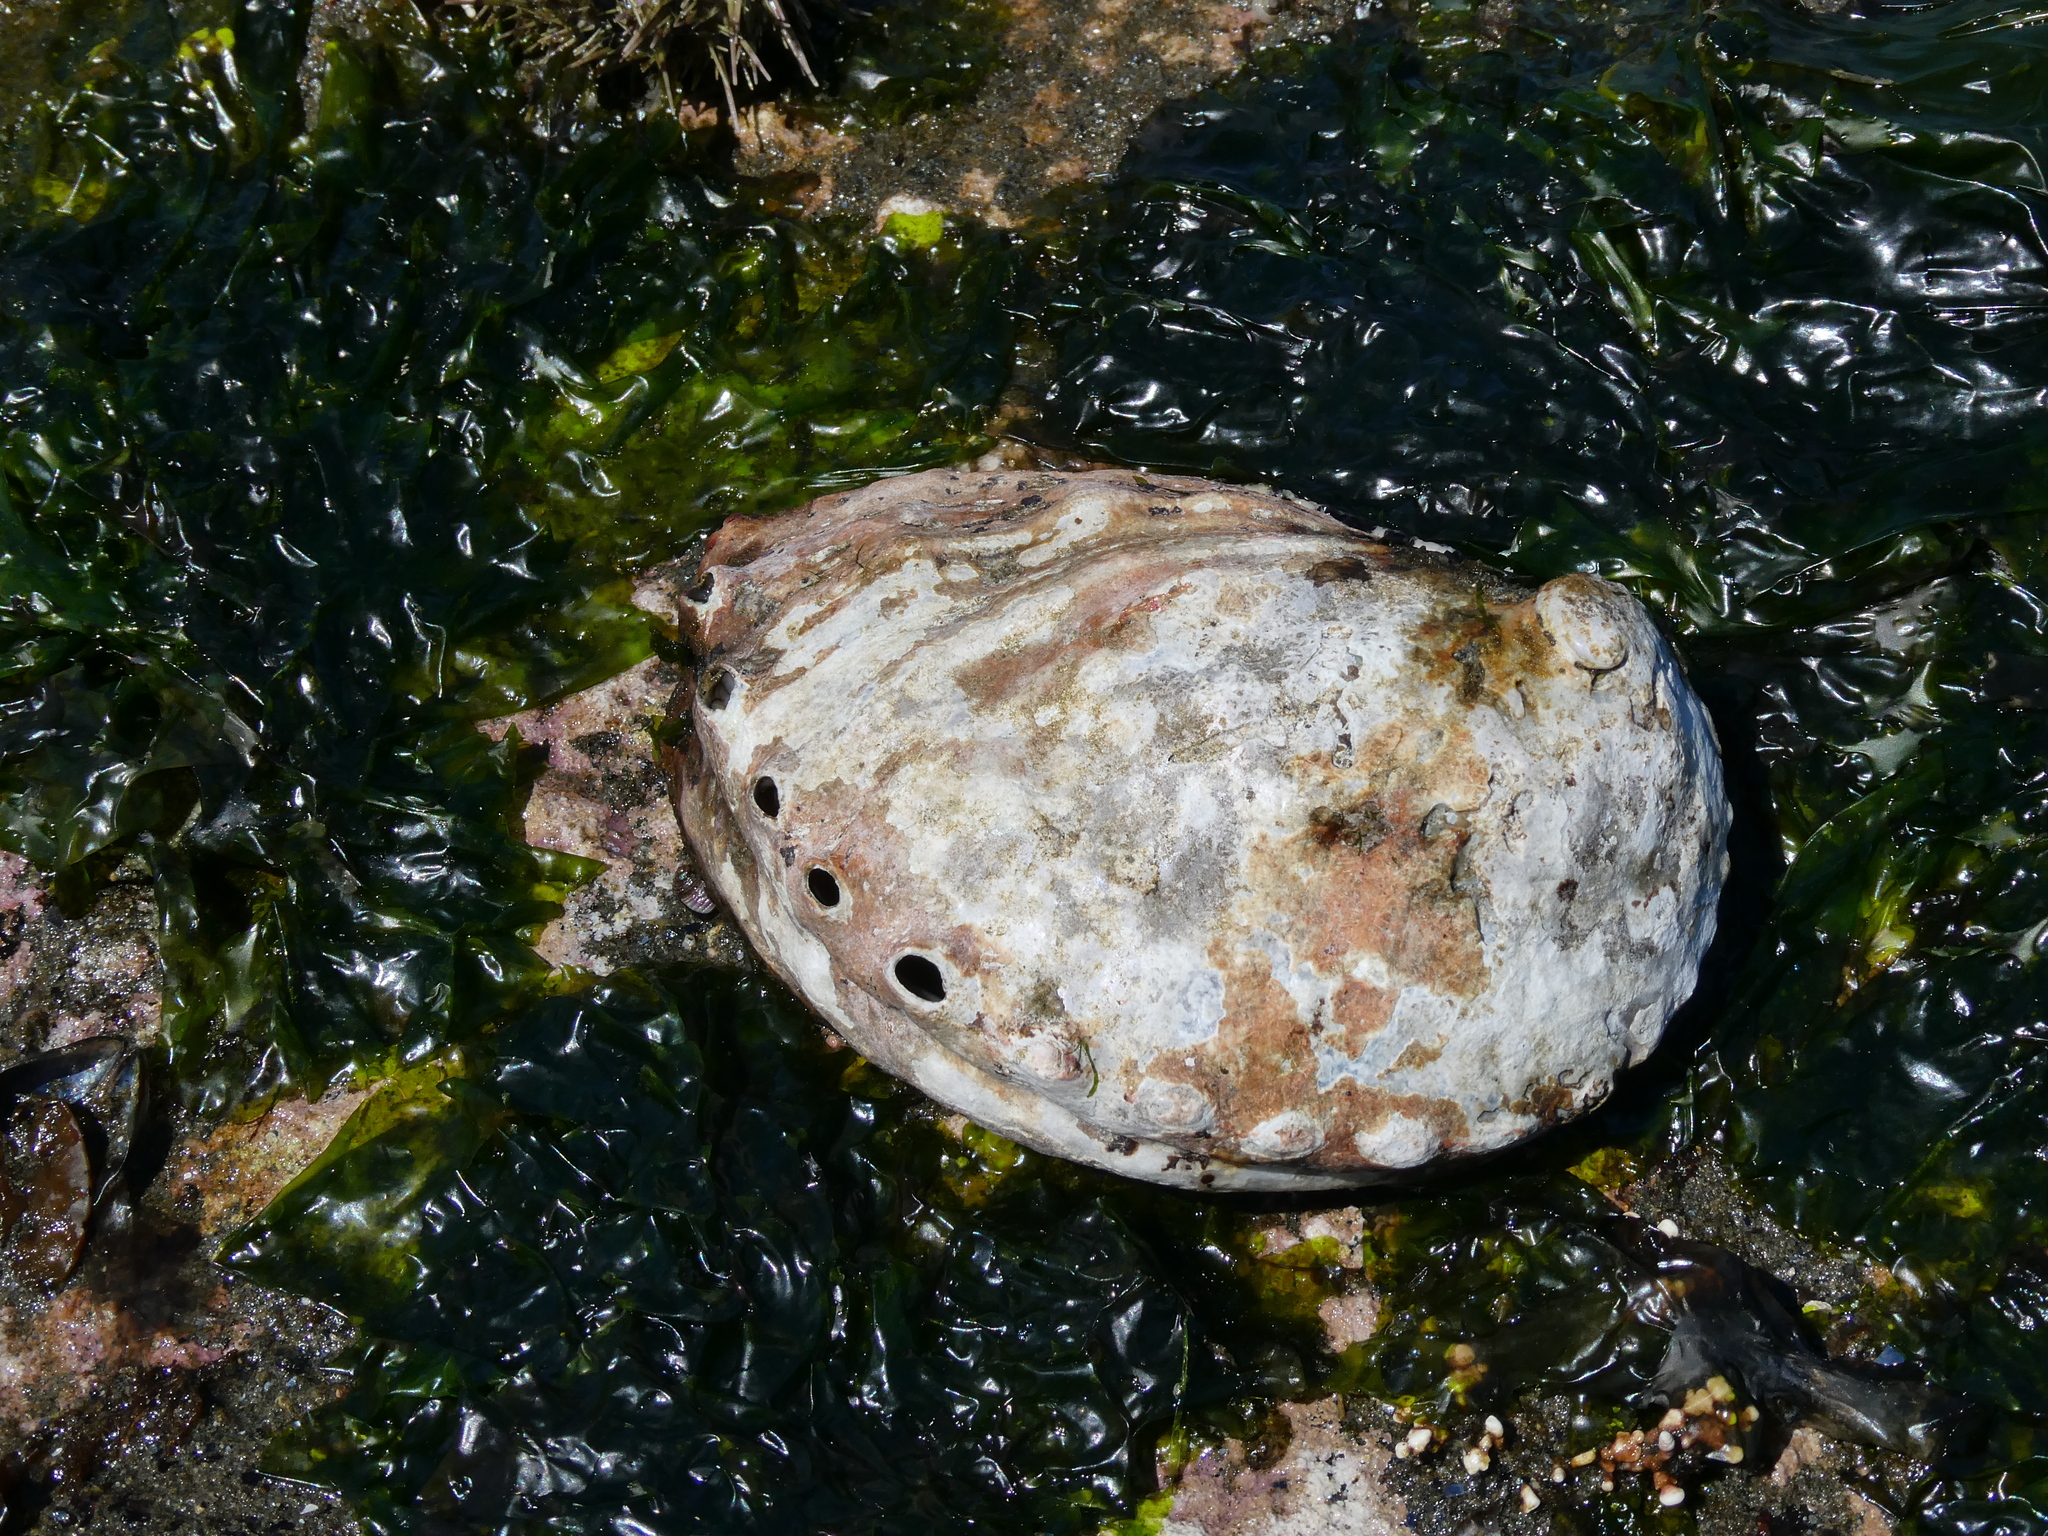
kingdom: Animalia
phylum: Mollusca
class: Gastropoda
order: Lepetellida
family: Haliotidae
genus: Haliotis
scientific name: Haliotis kamtschatkana
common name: Pinto abalone
